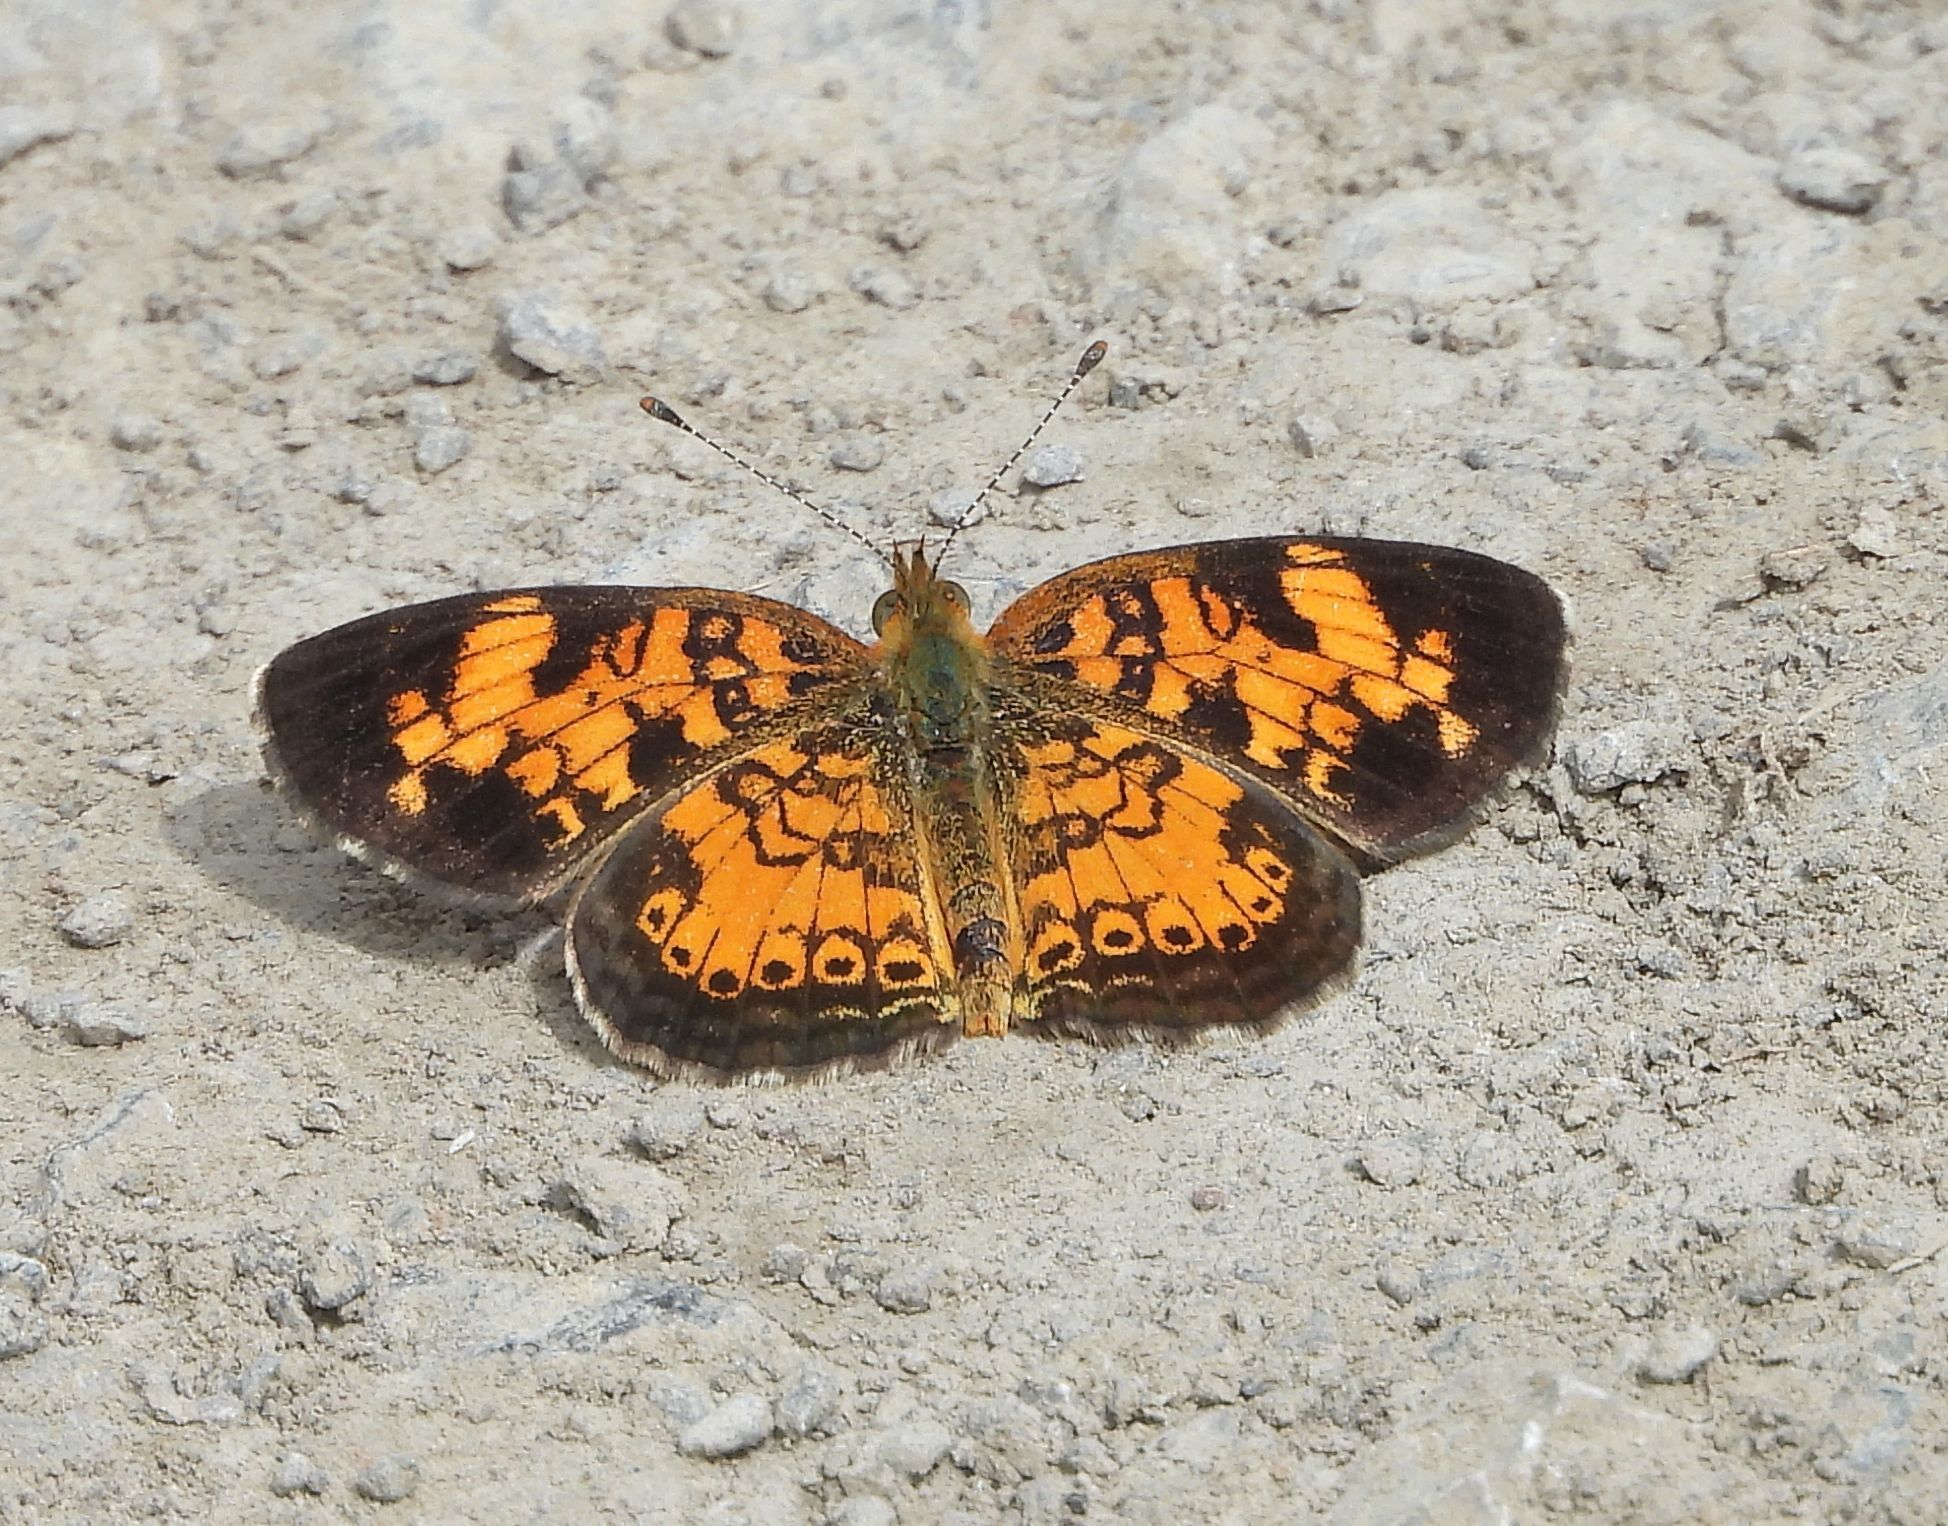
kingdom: Animalia
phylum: Arthropoda
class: Insecta
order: Lepidoptera
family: Nymphalidae
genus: Phyciodes
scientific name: Phyciodes tharos
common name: Pearl crescent
